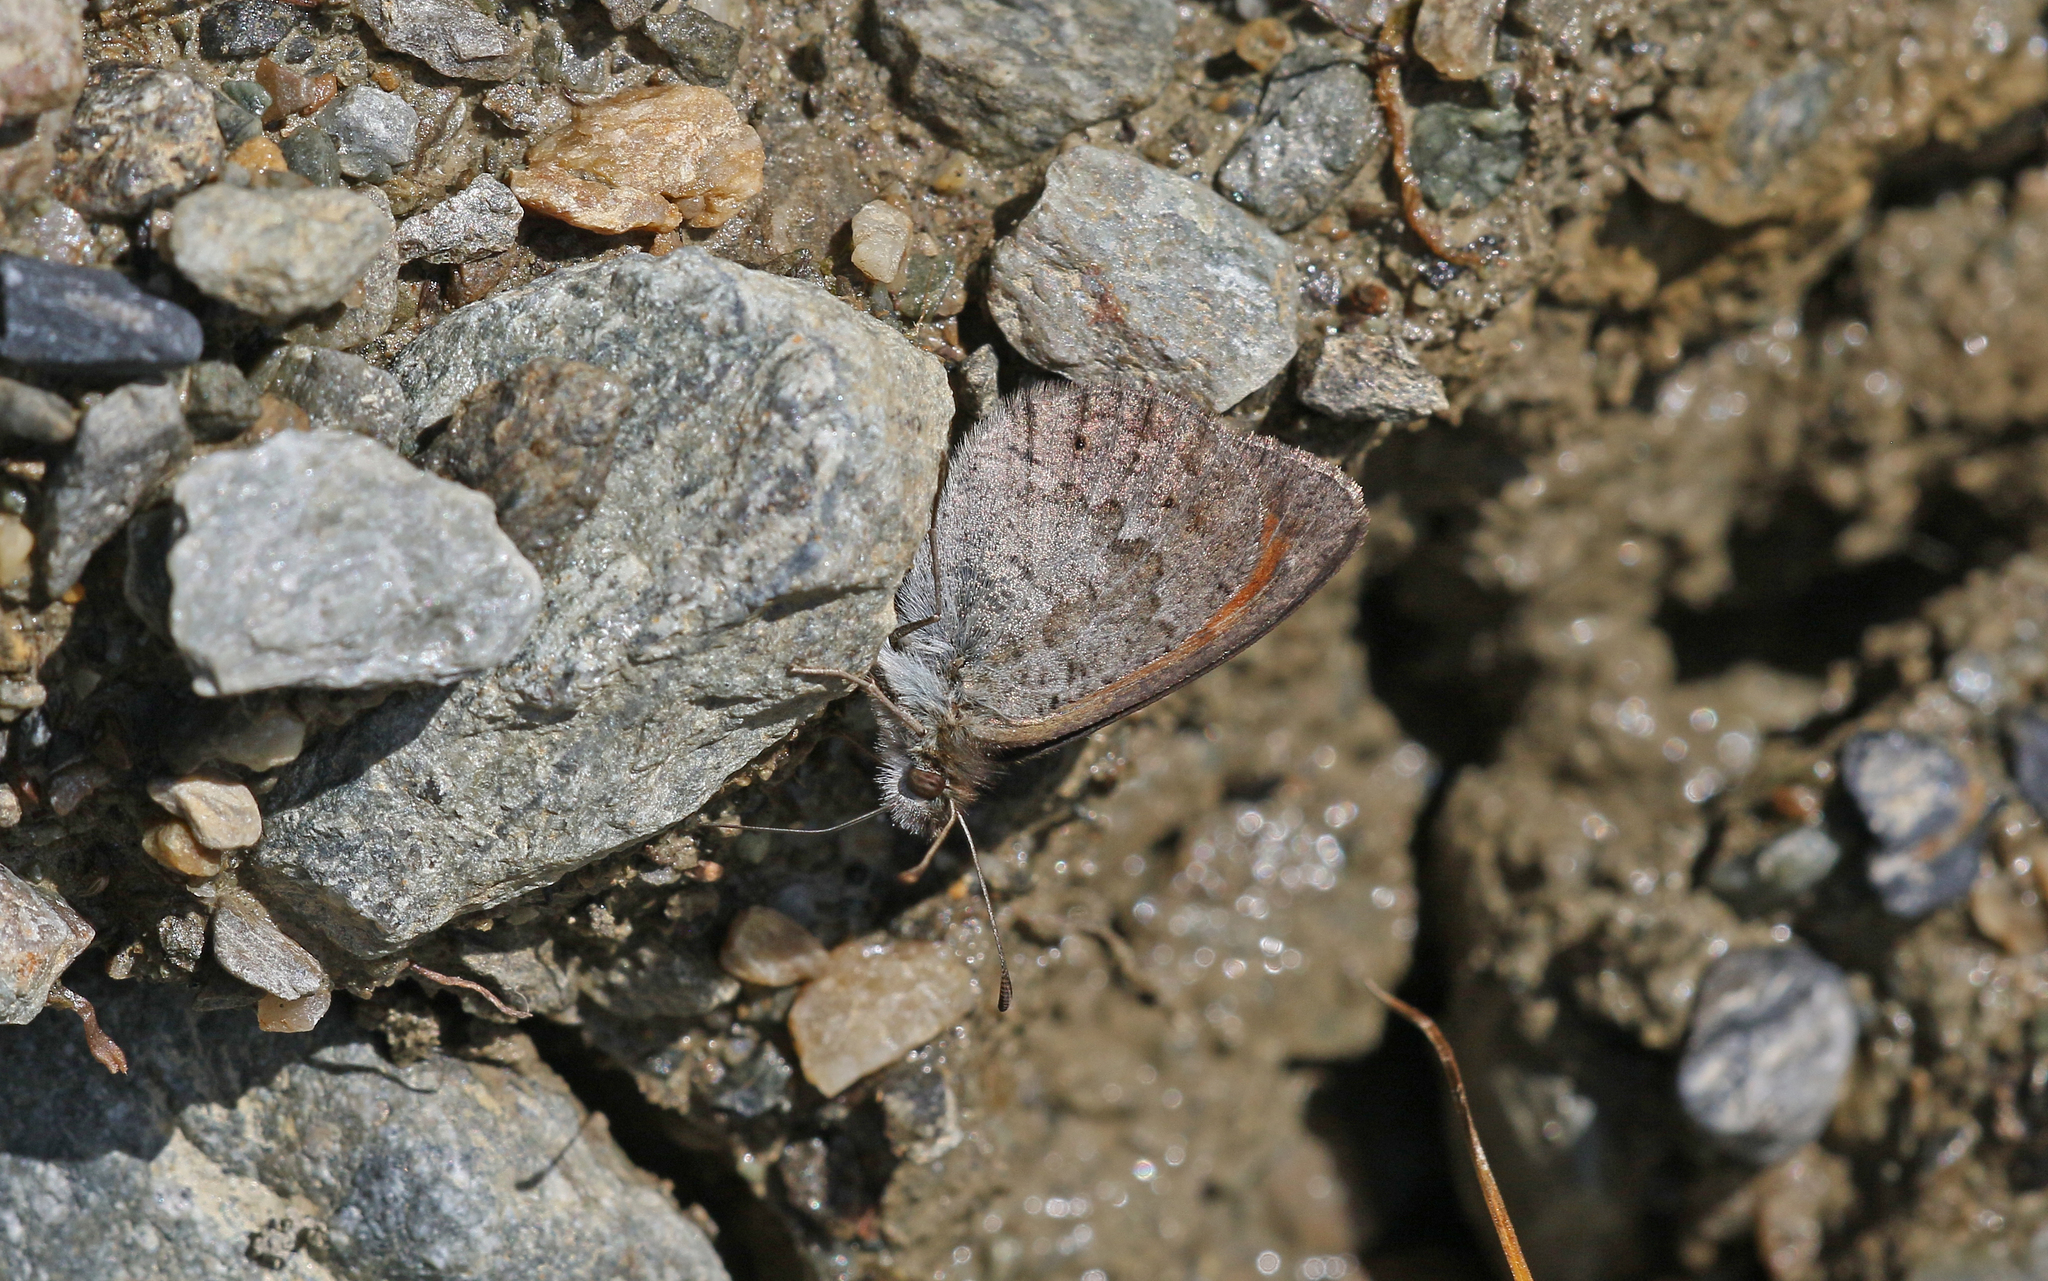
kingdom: Animalia
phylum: Arthropoda
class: Insecta
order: Lepidoptera
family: Nymphalidae
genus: Erebia
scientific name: Erebia cassioides
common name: Common brassy ringlet
